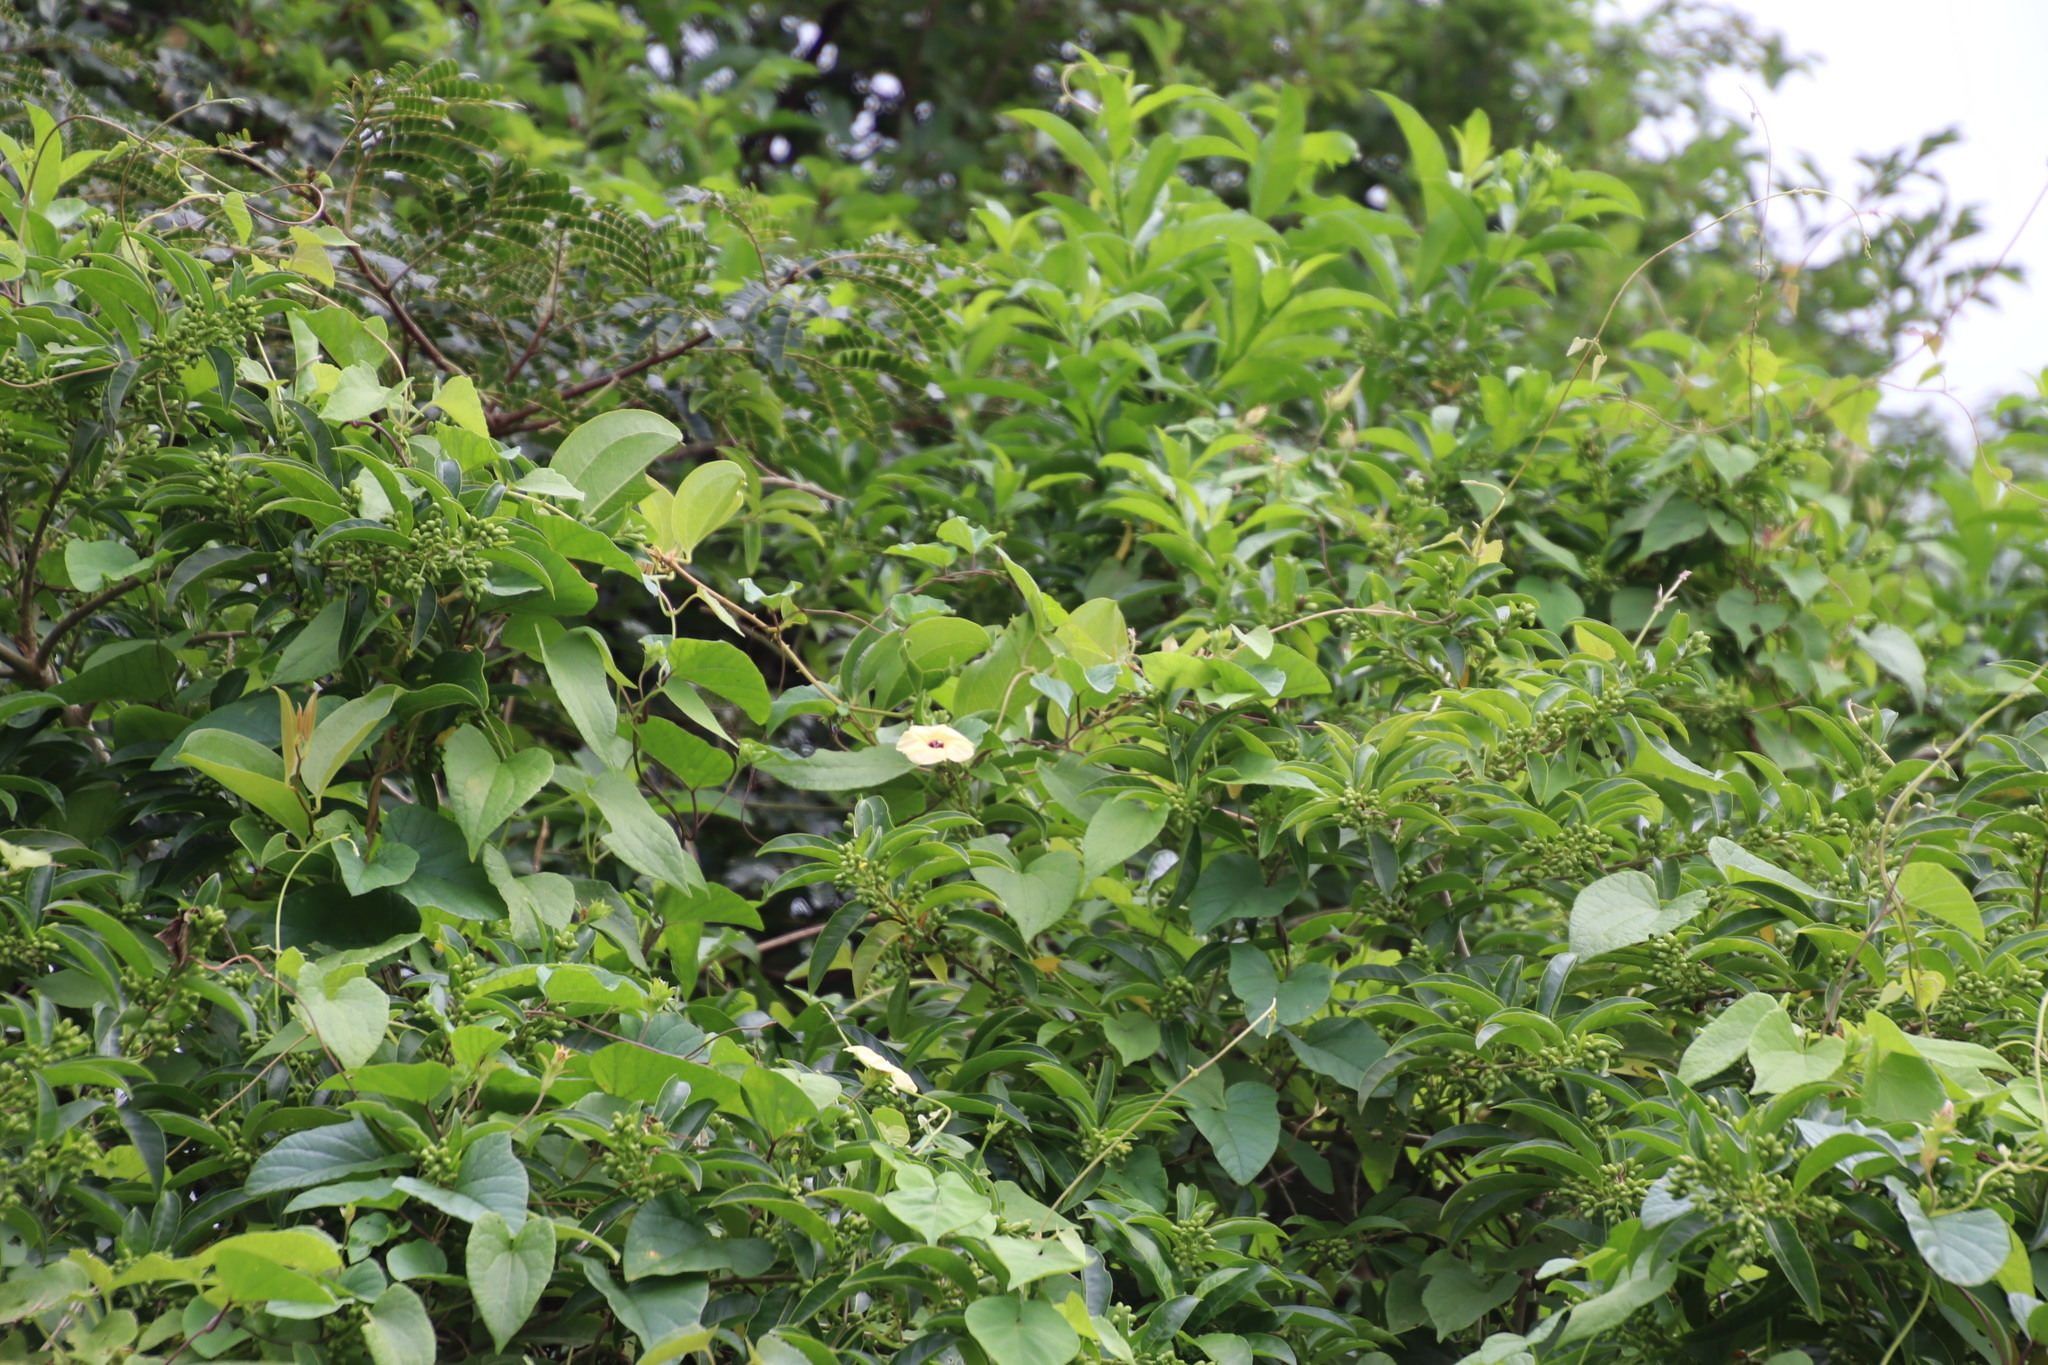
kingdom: Plantae
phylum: Tracheophyta
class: Magnoliopsida
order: Solanales
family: Convolvulaceae
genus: Hewittia
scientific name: Hewittia malabarica
